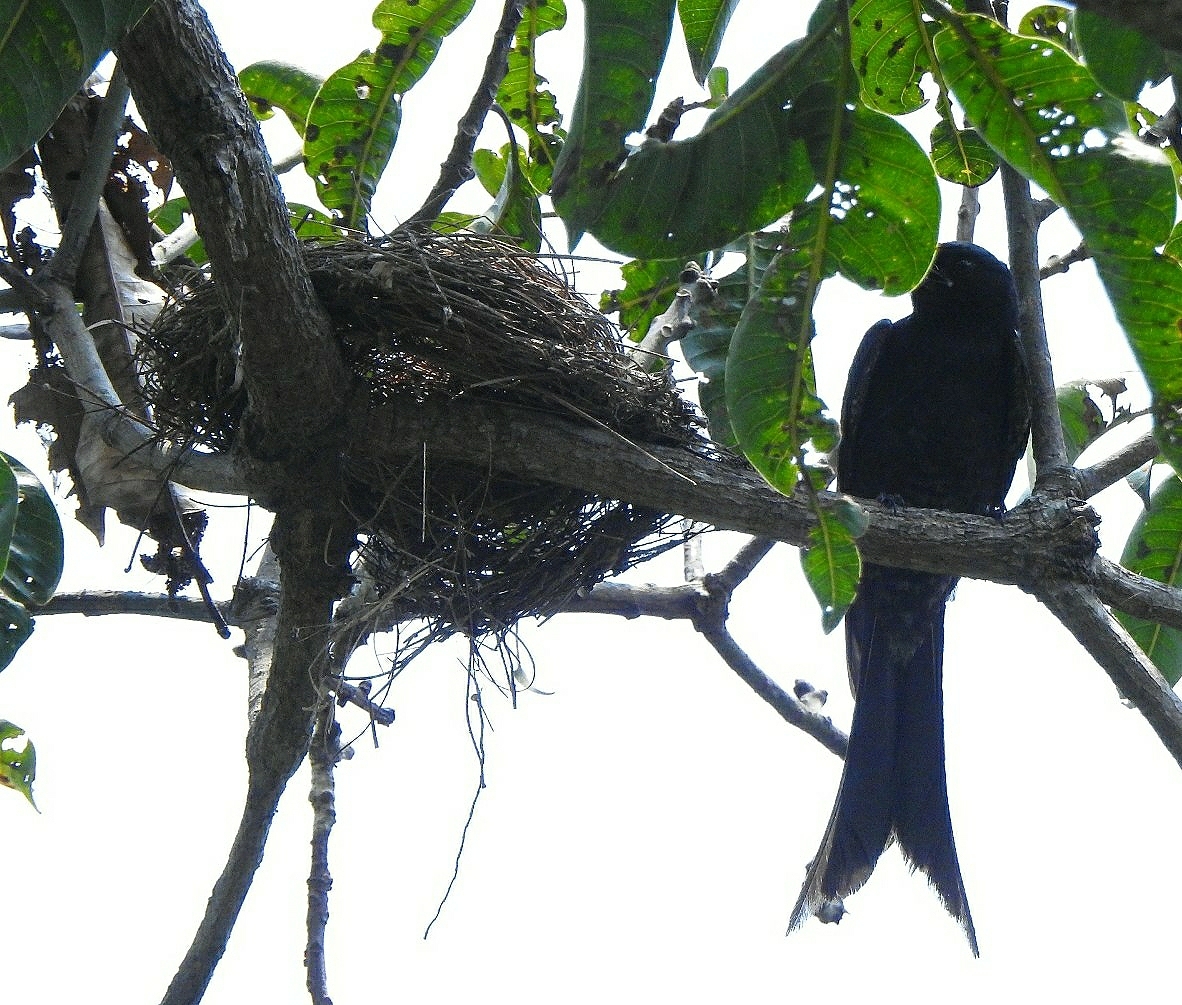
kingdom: Animalia
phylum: Chordata
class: Aves
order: Passeriformes
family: Dicruridae
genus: Dicrurus
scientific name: Dicrurus macrocercus
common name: Black drongo
